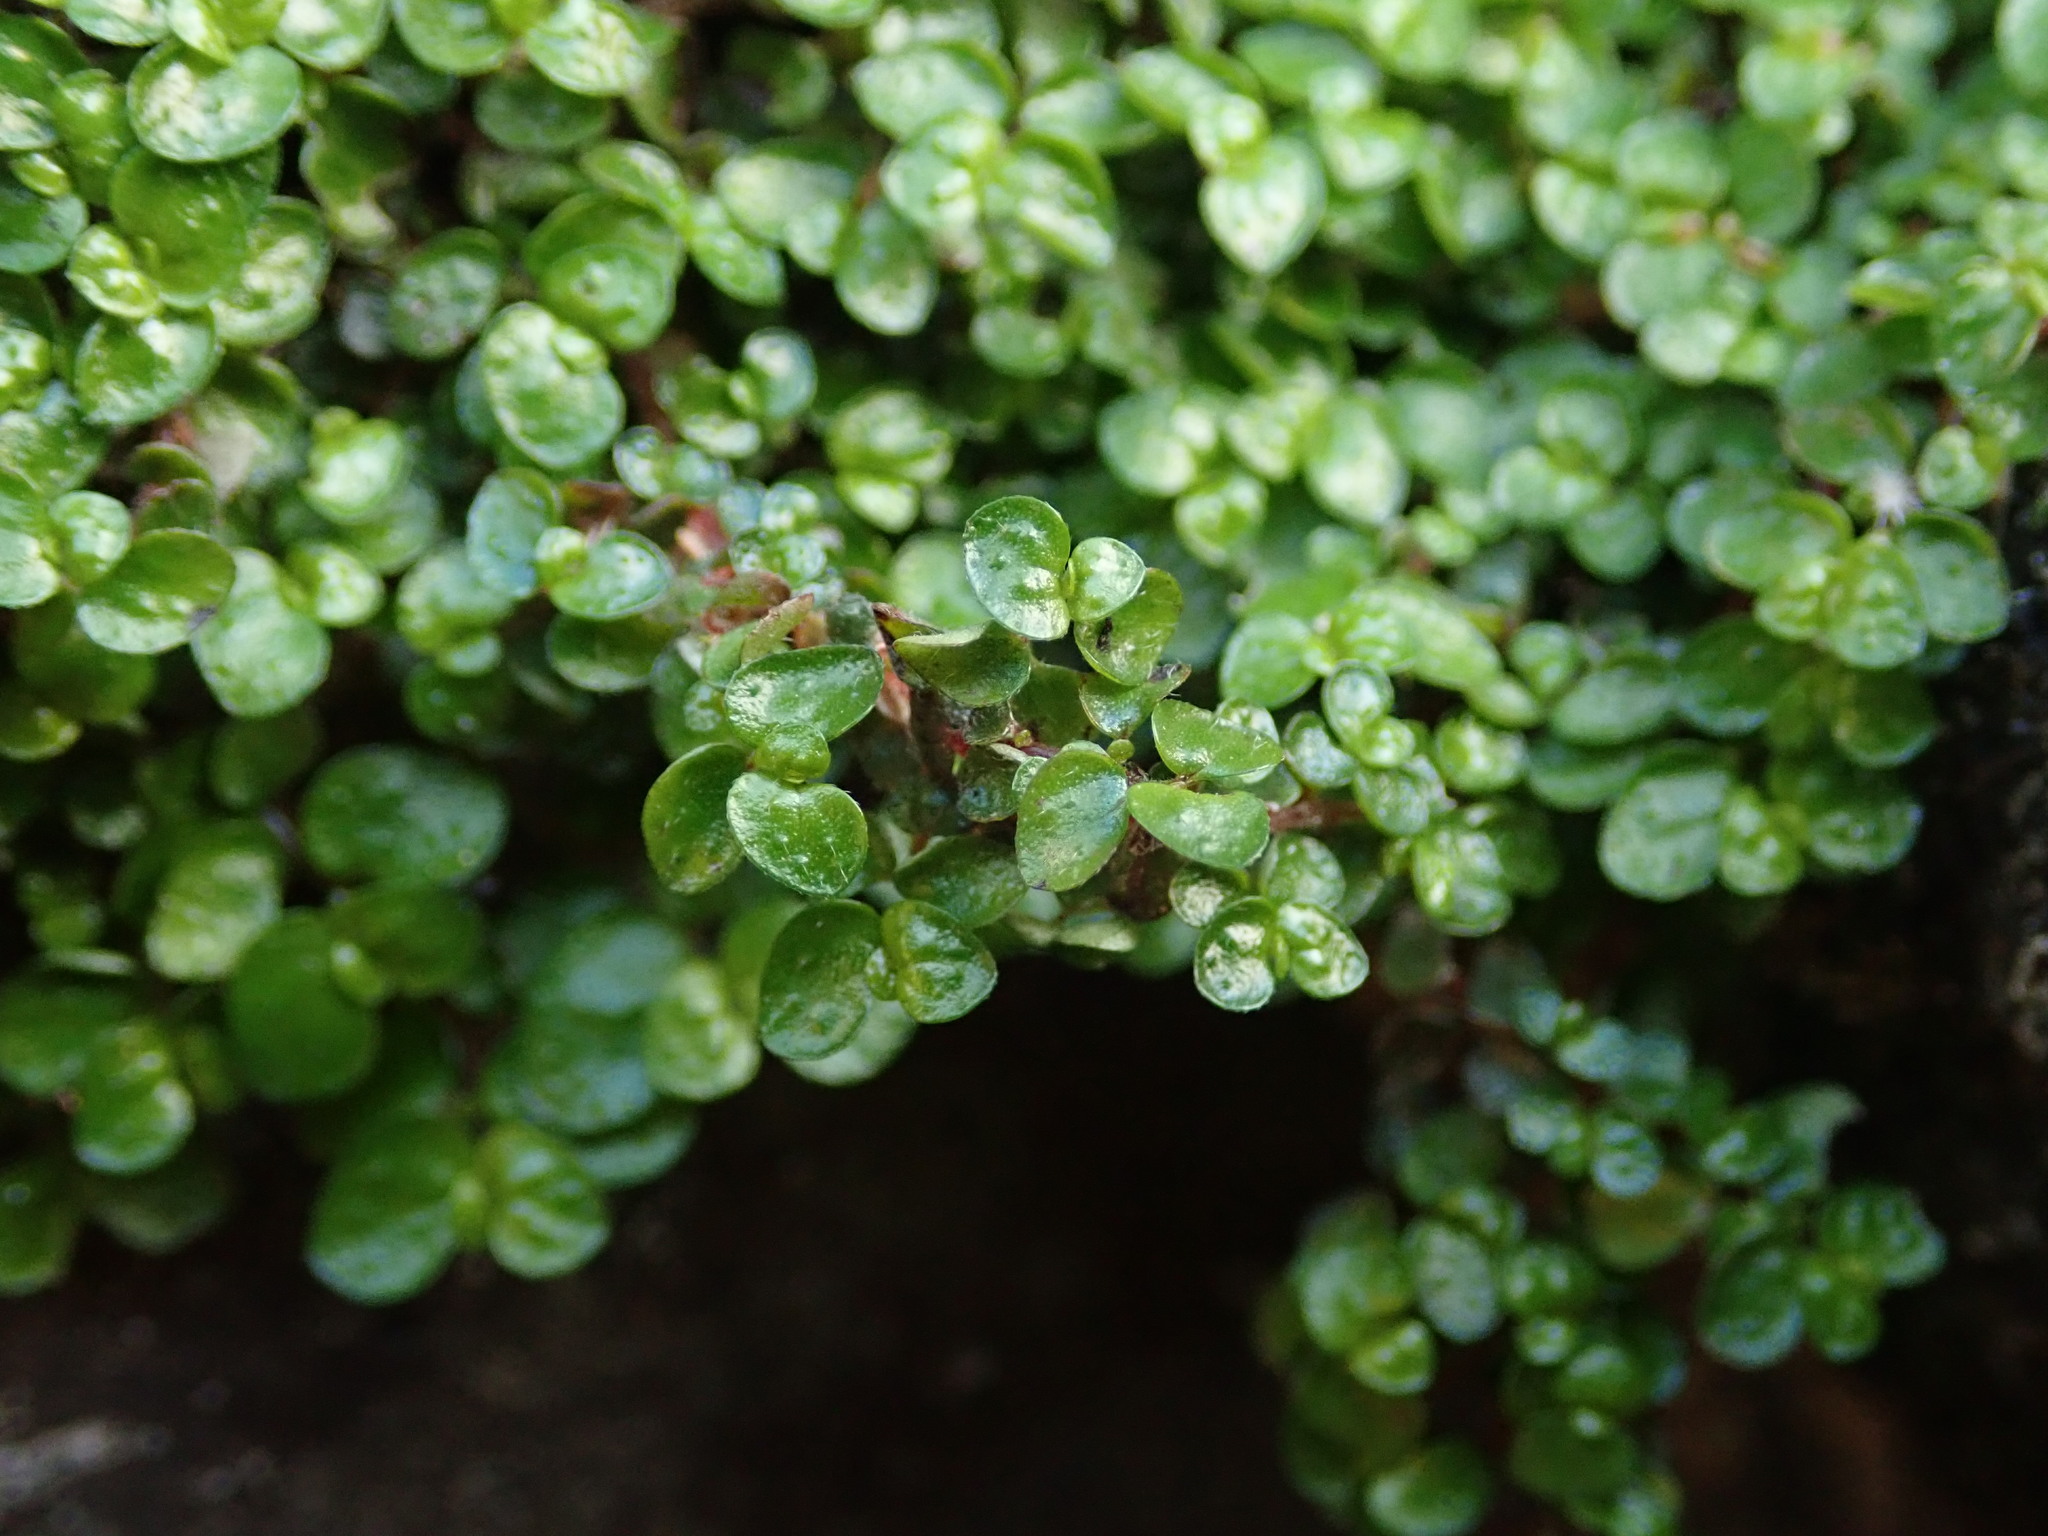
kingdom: Plantae
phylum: Tracheophyta
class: Magnoliopsida
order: Rosales
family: Urticaceae
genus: Soleirolia
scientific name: Soleirolia soleirolii
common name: Mind-your-own-business
